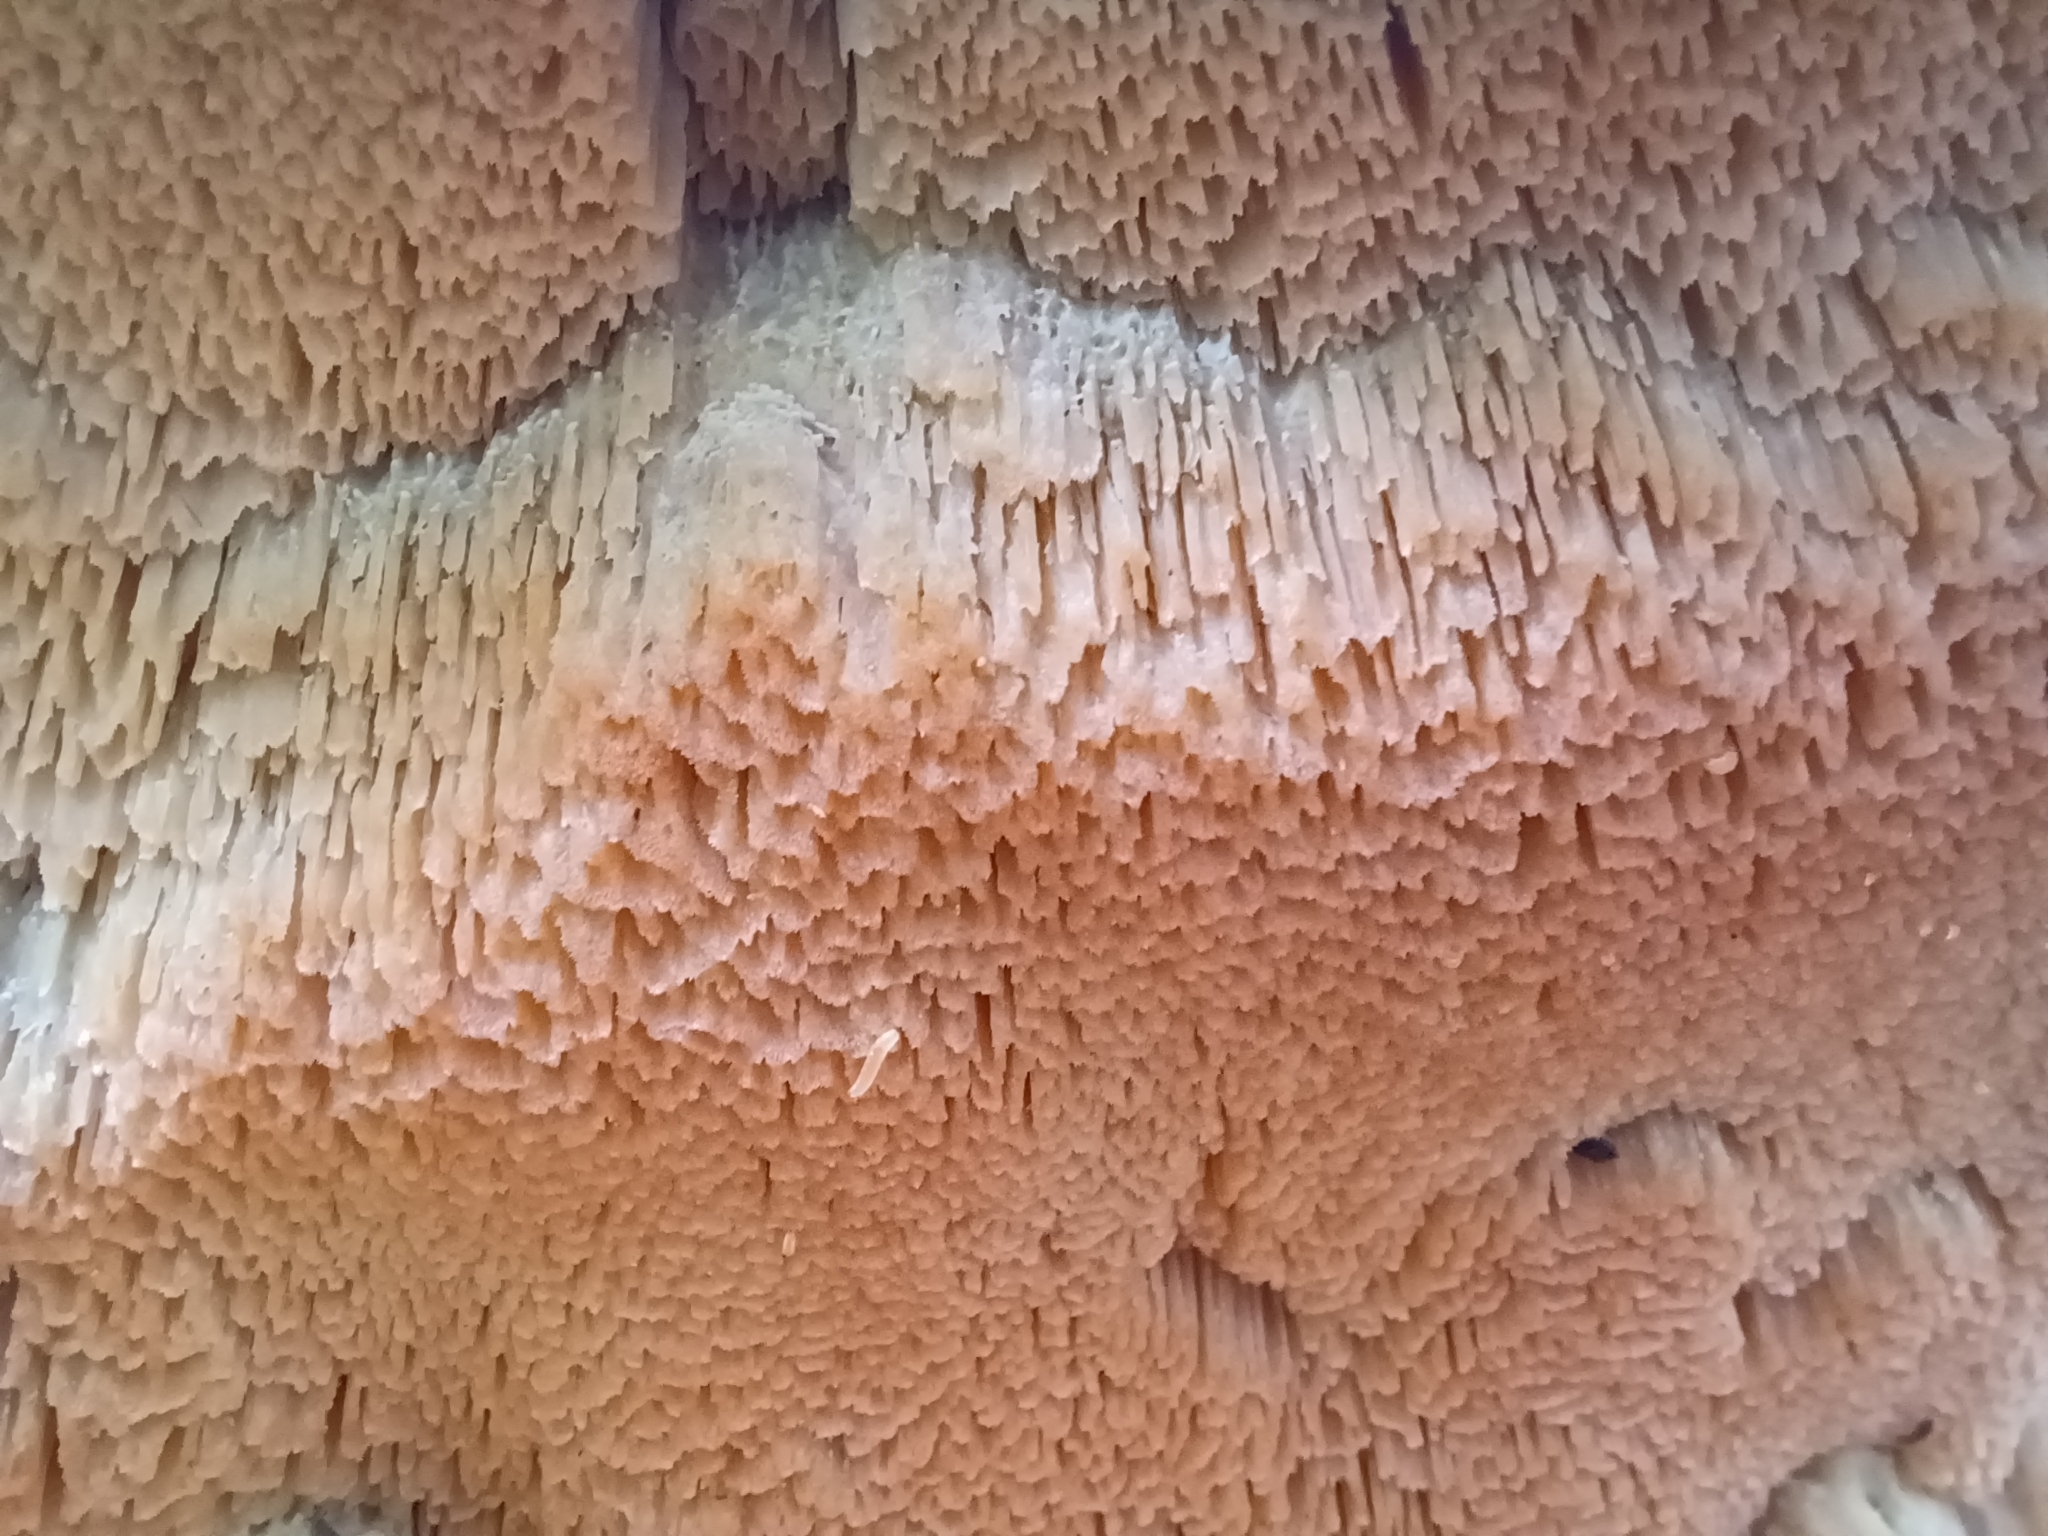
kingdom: Fungi
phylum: Basidiomycota
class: Agaricomycetes
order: Polyporales
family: Incrustoporiaceae
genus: Tyromyces
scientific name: Tyromyces pulcherrimus
